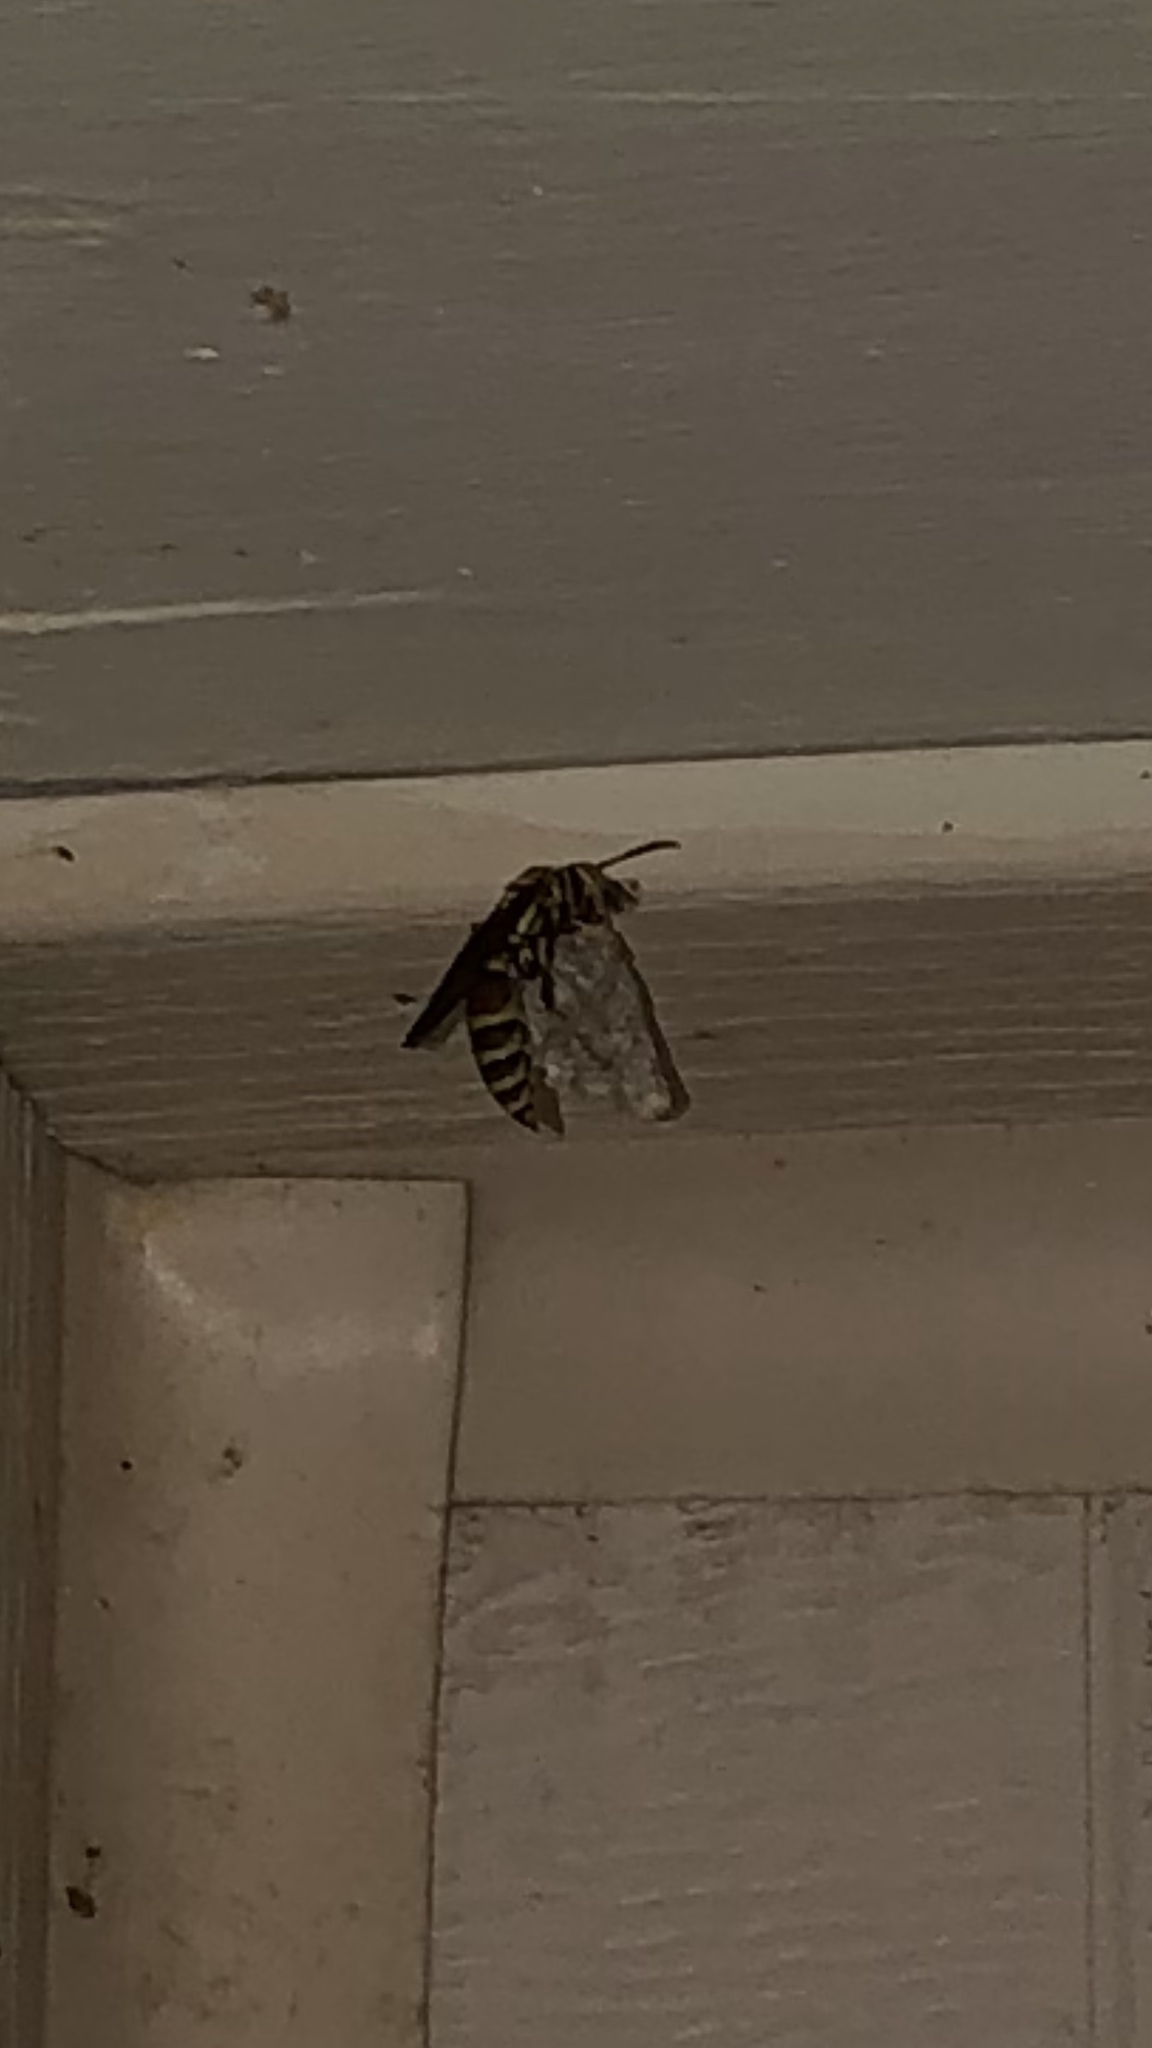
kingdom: Animalia
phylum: Arthropoda
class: Insecta
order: Hymenoptera
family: Eumenidae
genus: Polistes
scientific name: Polistes exclamans
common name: Paper wasp
